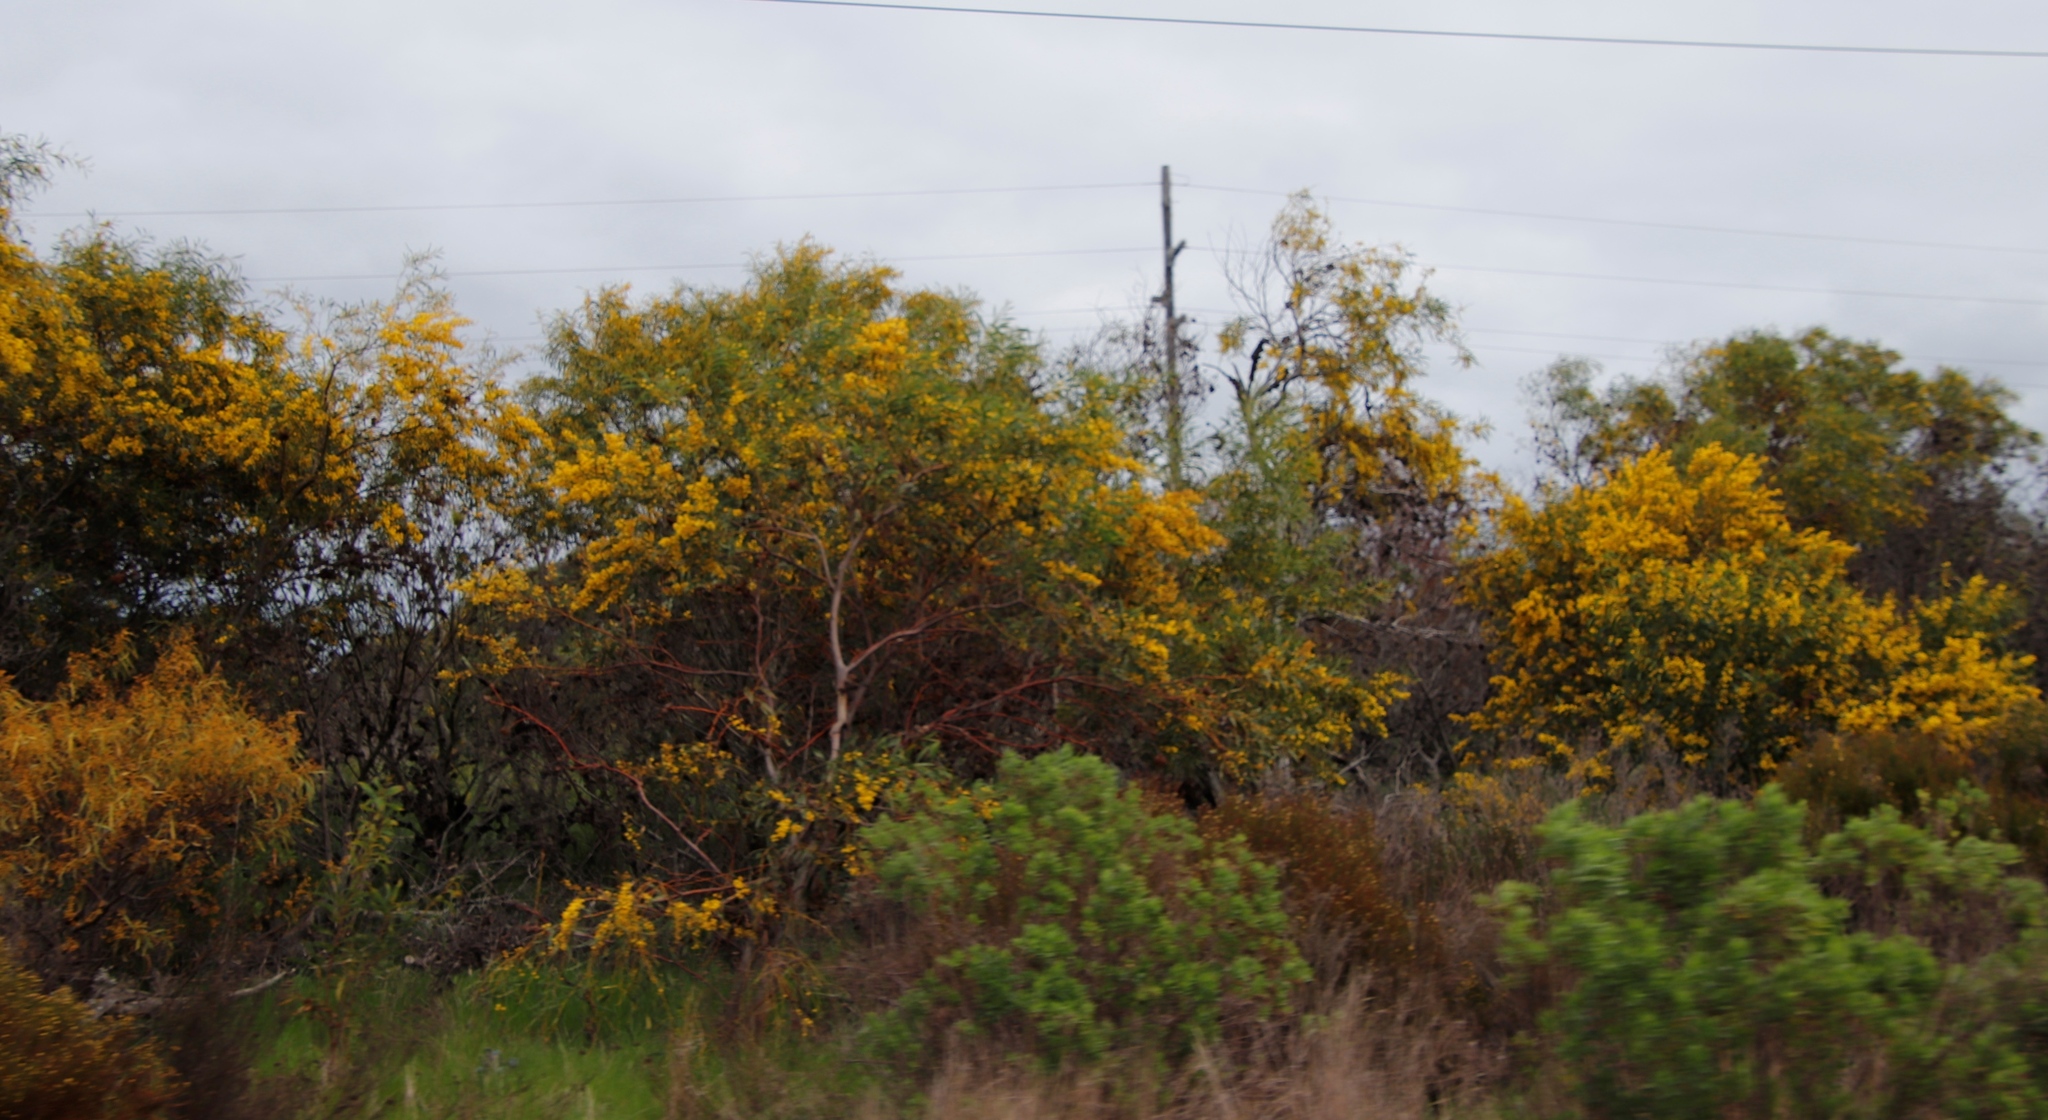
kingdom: Plantae
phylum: Tracheophyta
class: Magnoliopsida
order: Fabales
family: Fabaceae
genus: Acacia
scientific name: Acacia saligna
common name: Orange wattle
